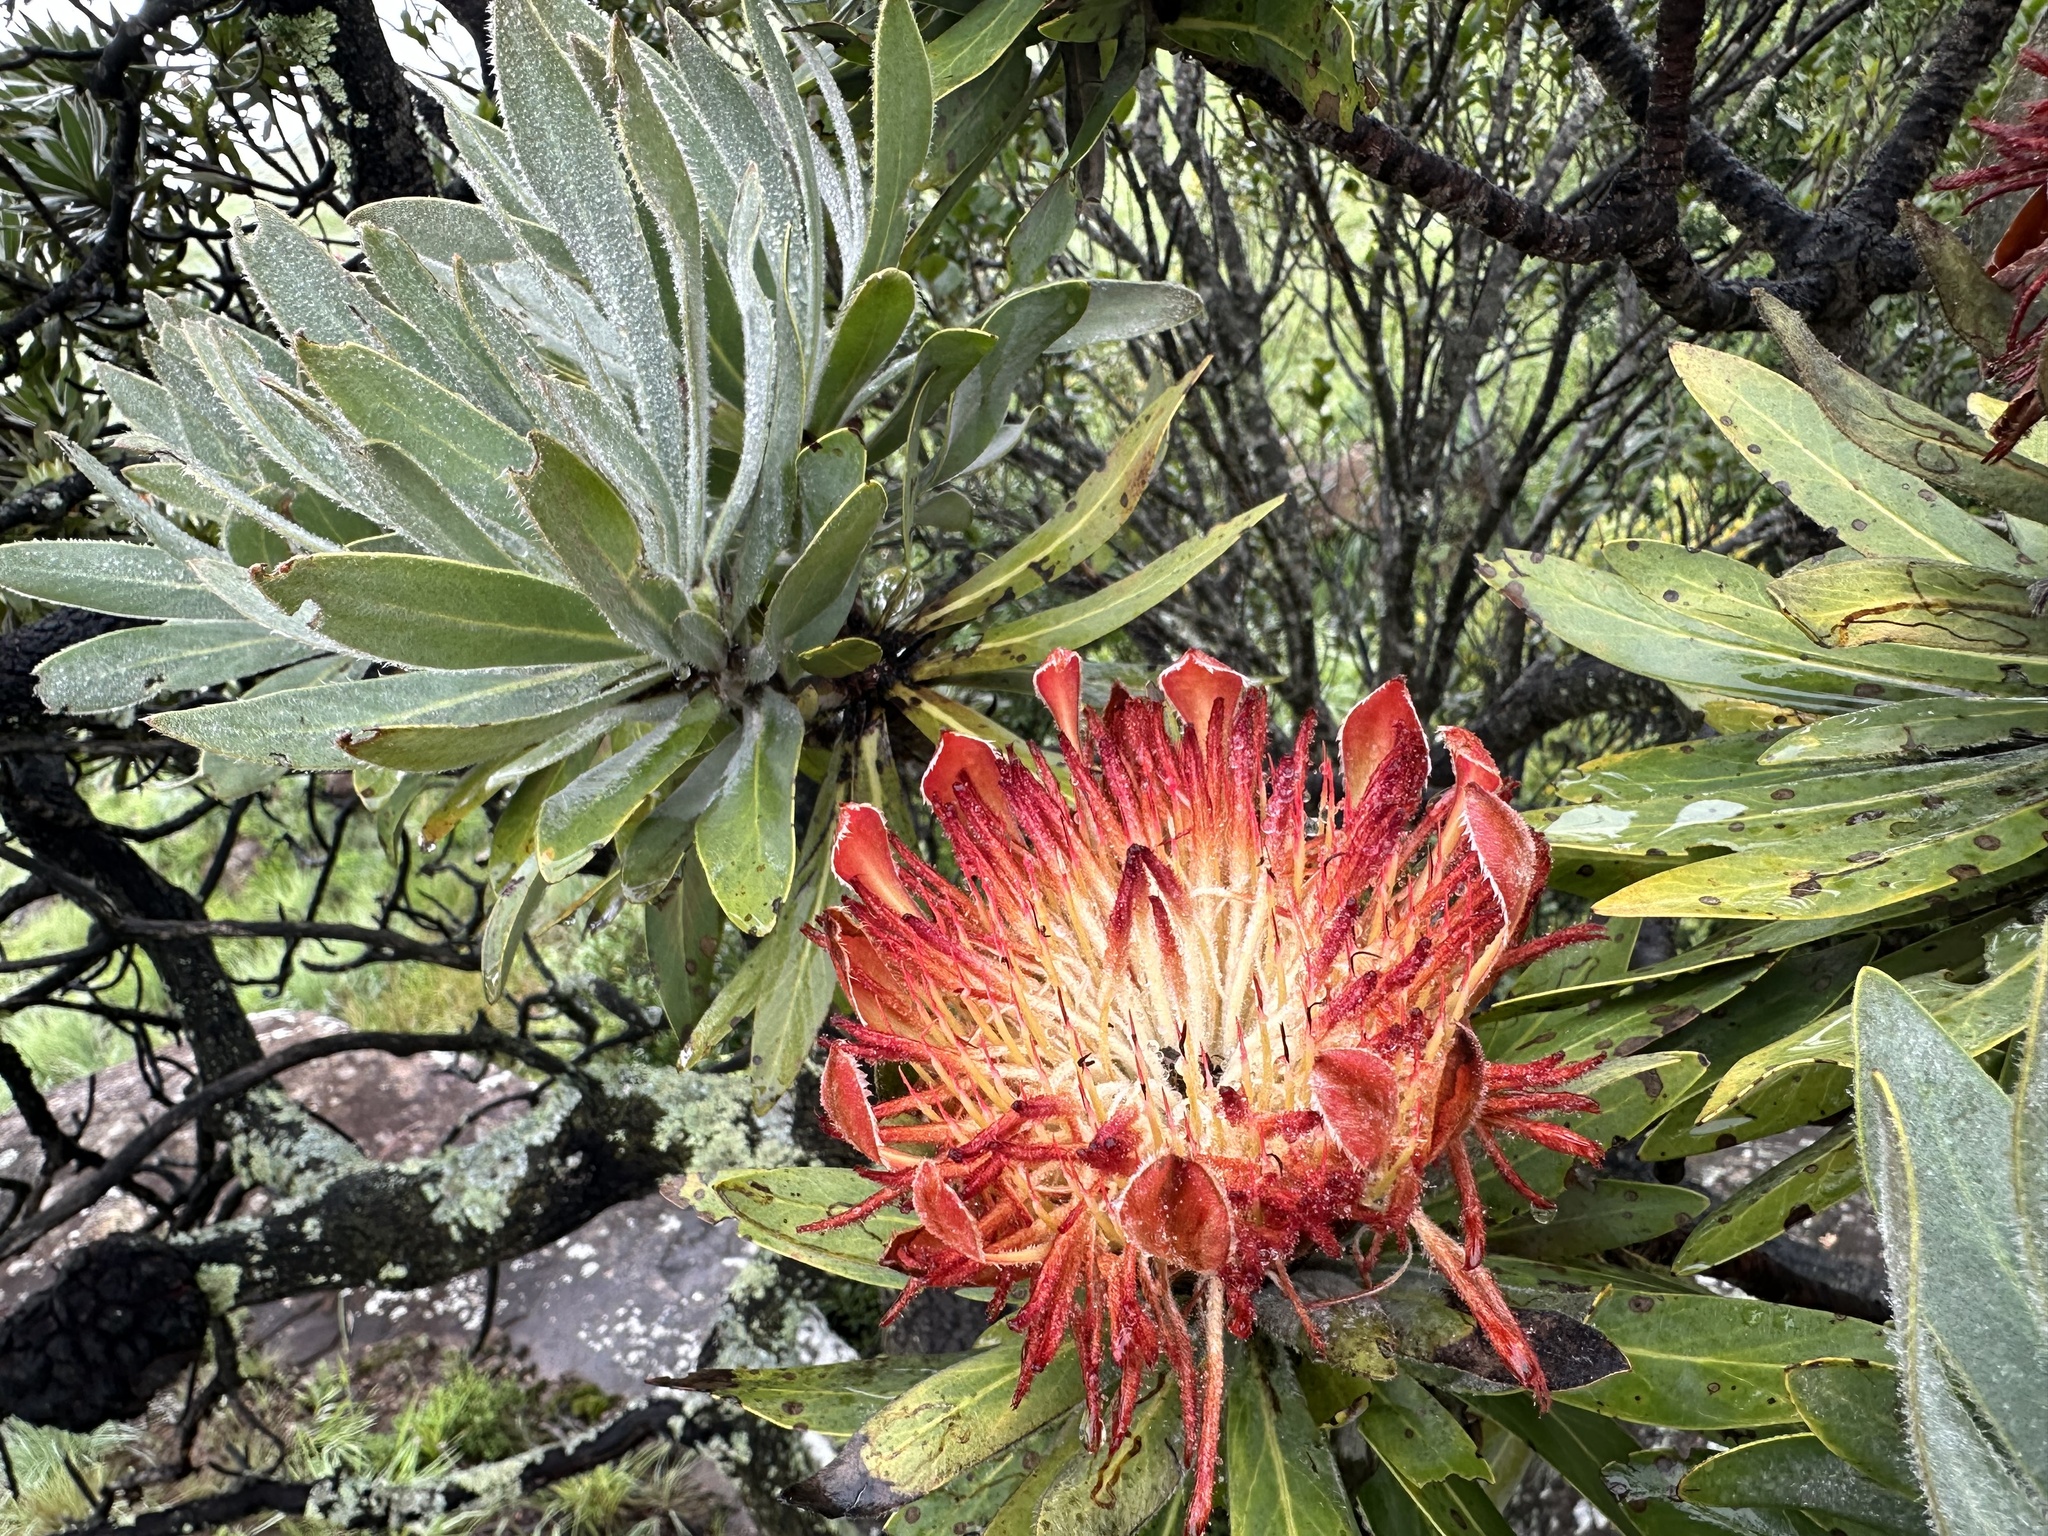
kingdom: Plantae
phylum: Tracheophyta
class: Magnoliopsida
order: Proteales
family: Proteaceae
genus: Protea
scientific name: Protea roupelliae
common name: Silver sugarbush
